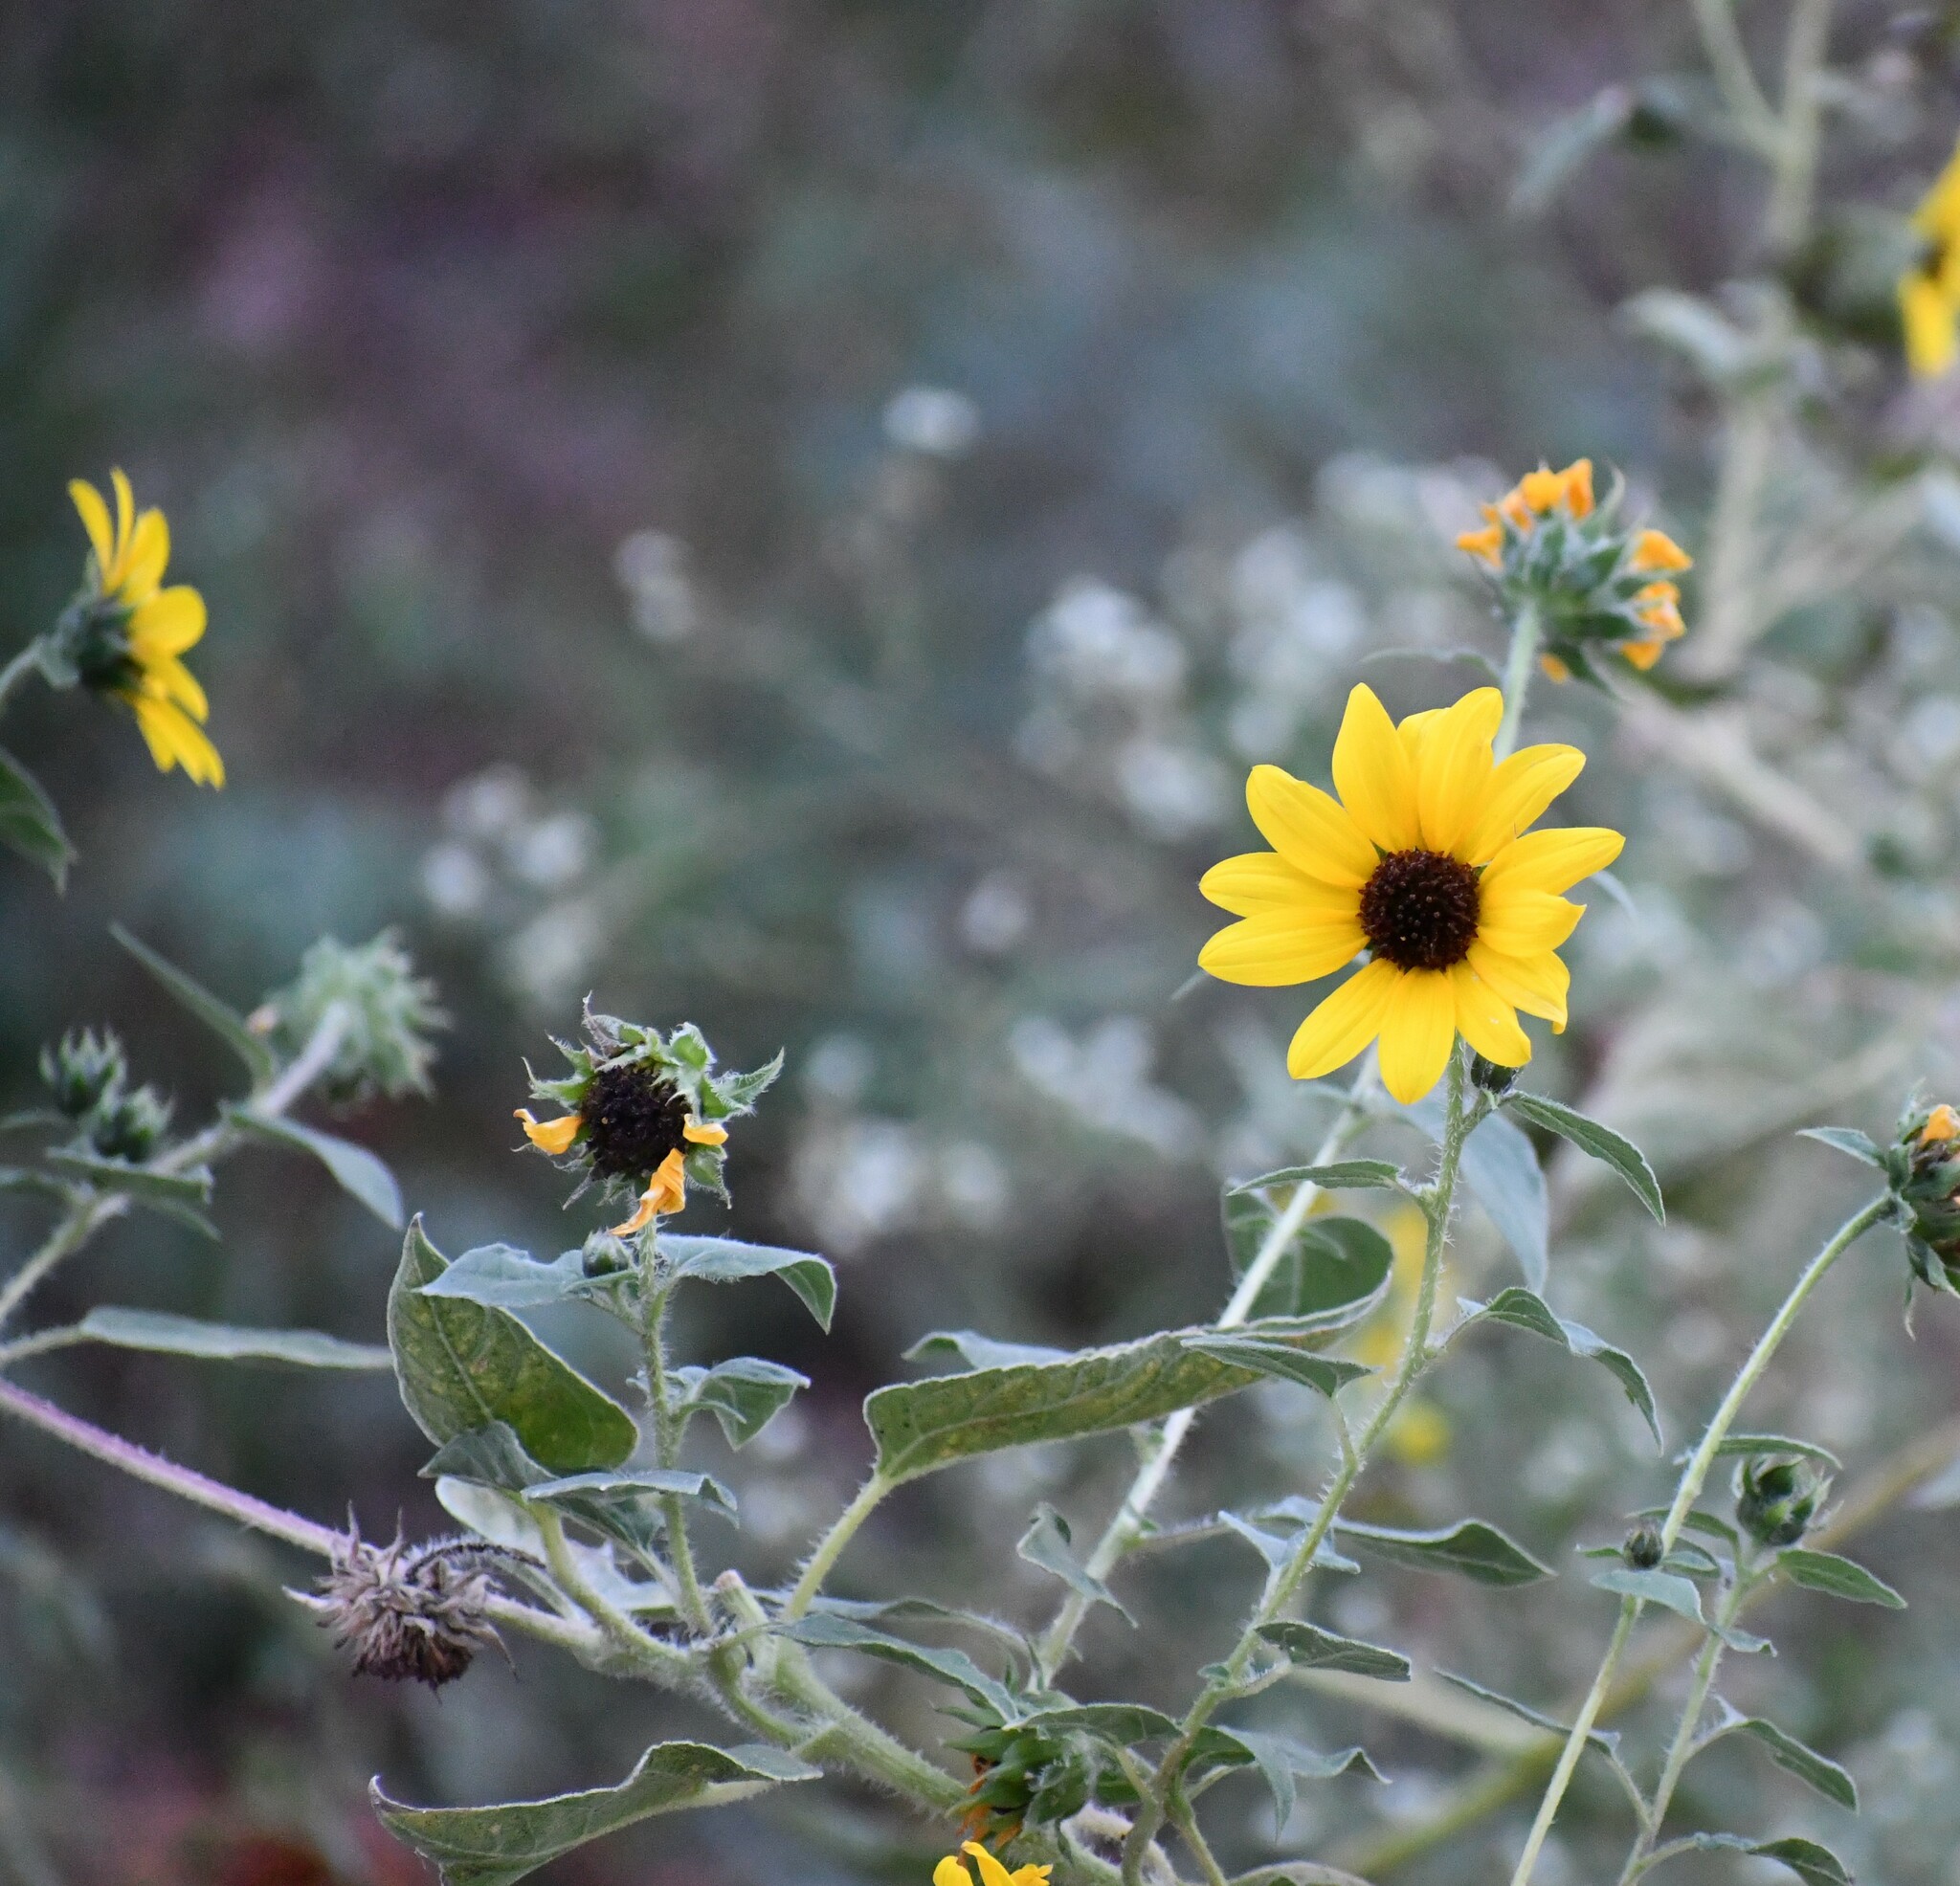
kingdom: Plantae
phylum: Tracheophyta
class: Magnoliopsida
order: Asterales
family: Asteraceae
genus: Helianthus
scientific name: Helianthus annuus
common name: Sunflower
